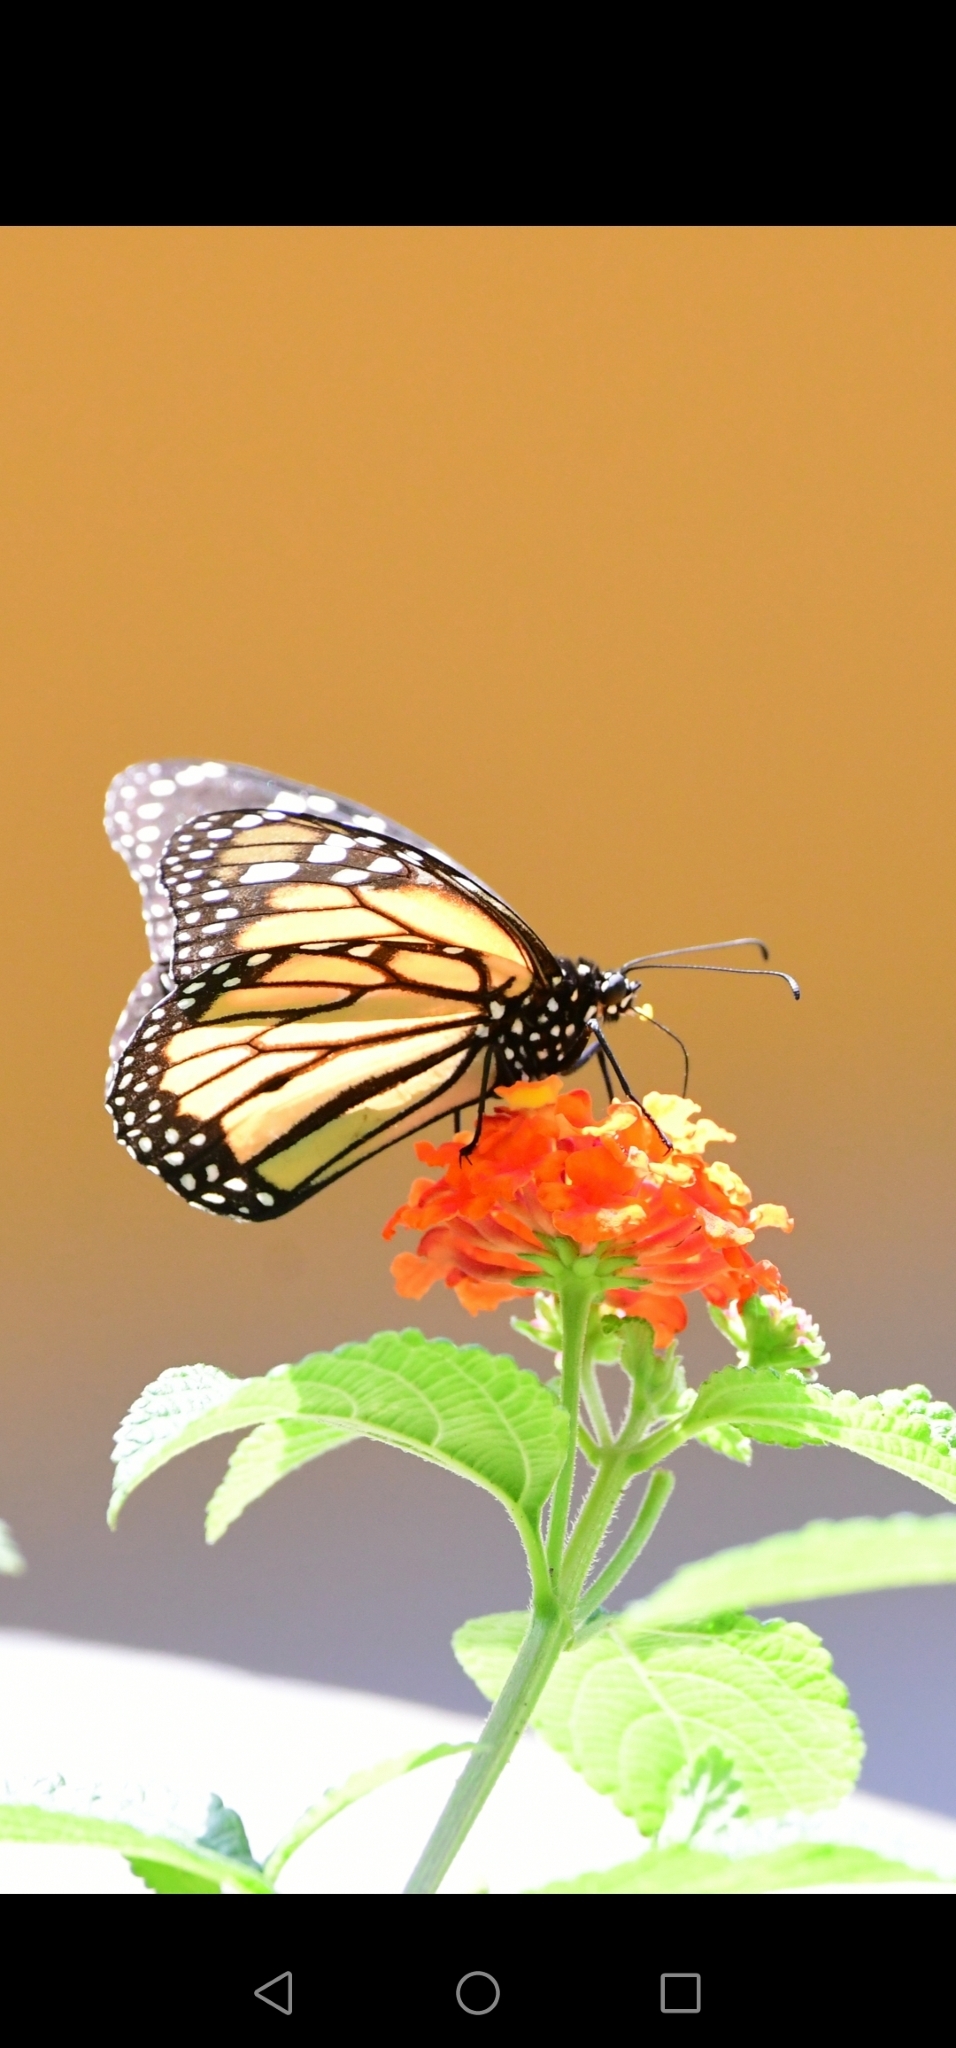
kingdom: Animalia
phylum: Arthropoda
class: Insecta
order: Lepidoptera
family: Nymphalidae
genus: Danaus
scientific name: Danaus plexippus
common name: Monarch
